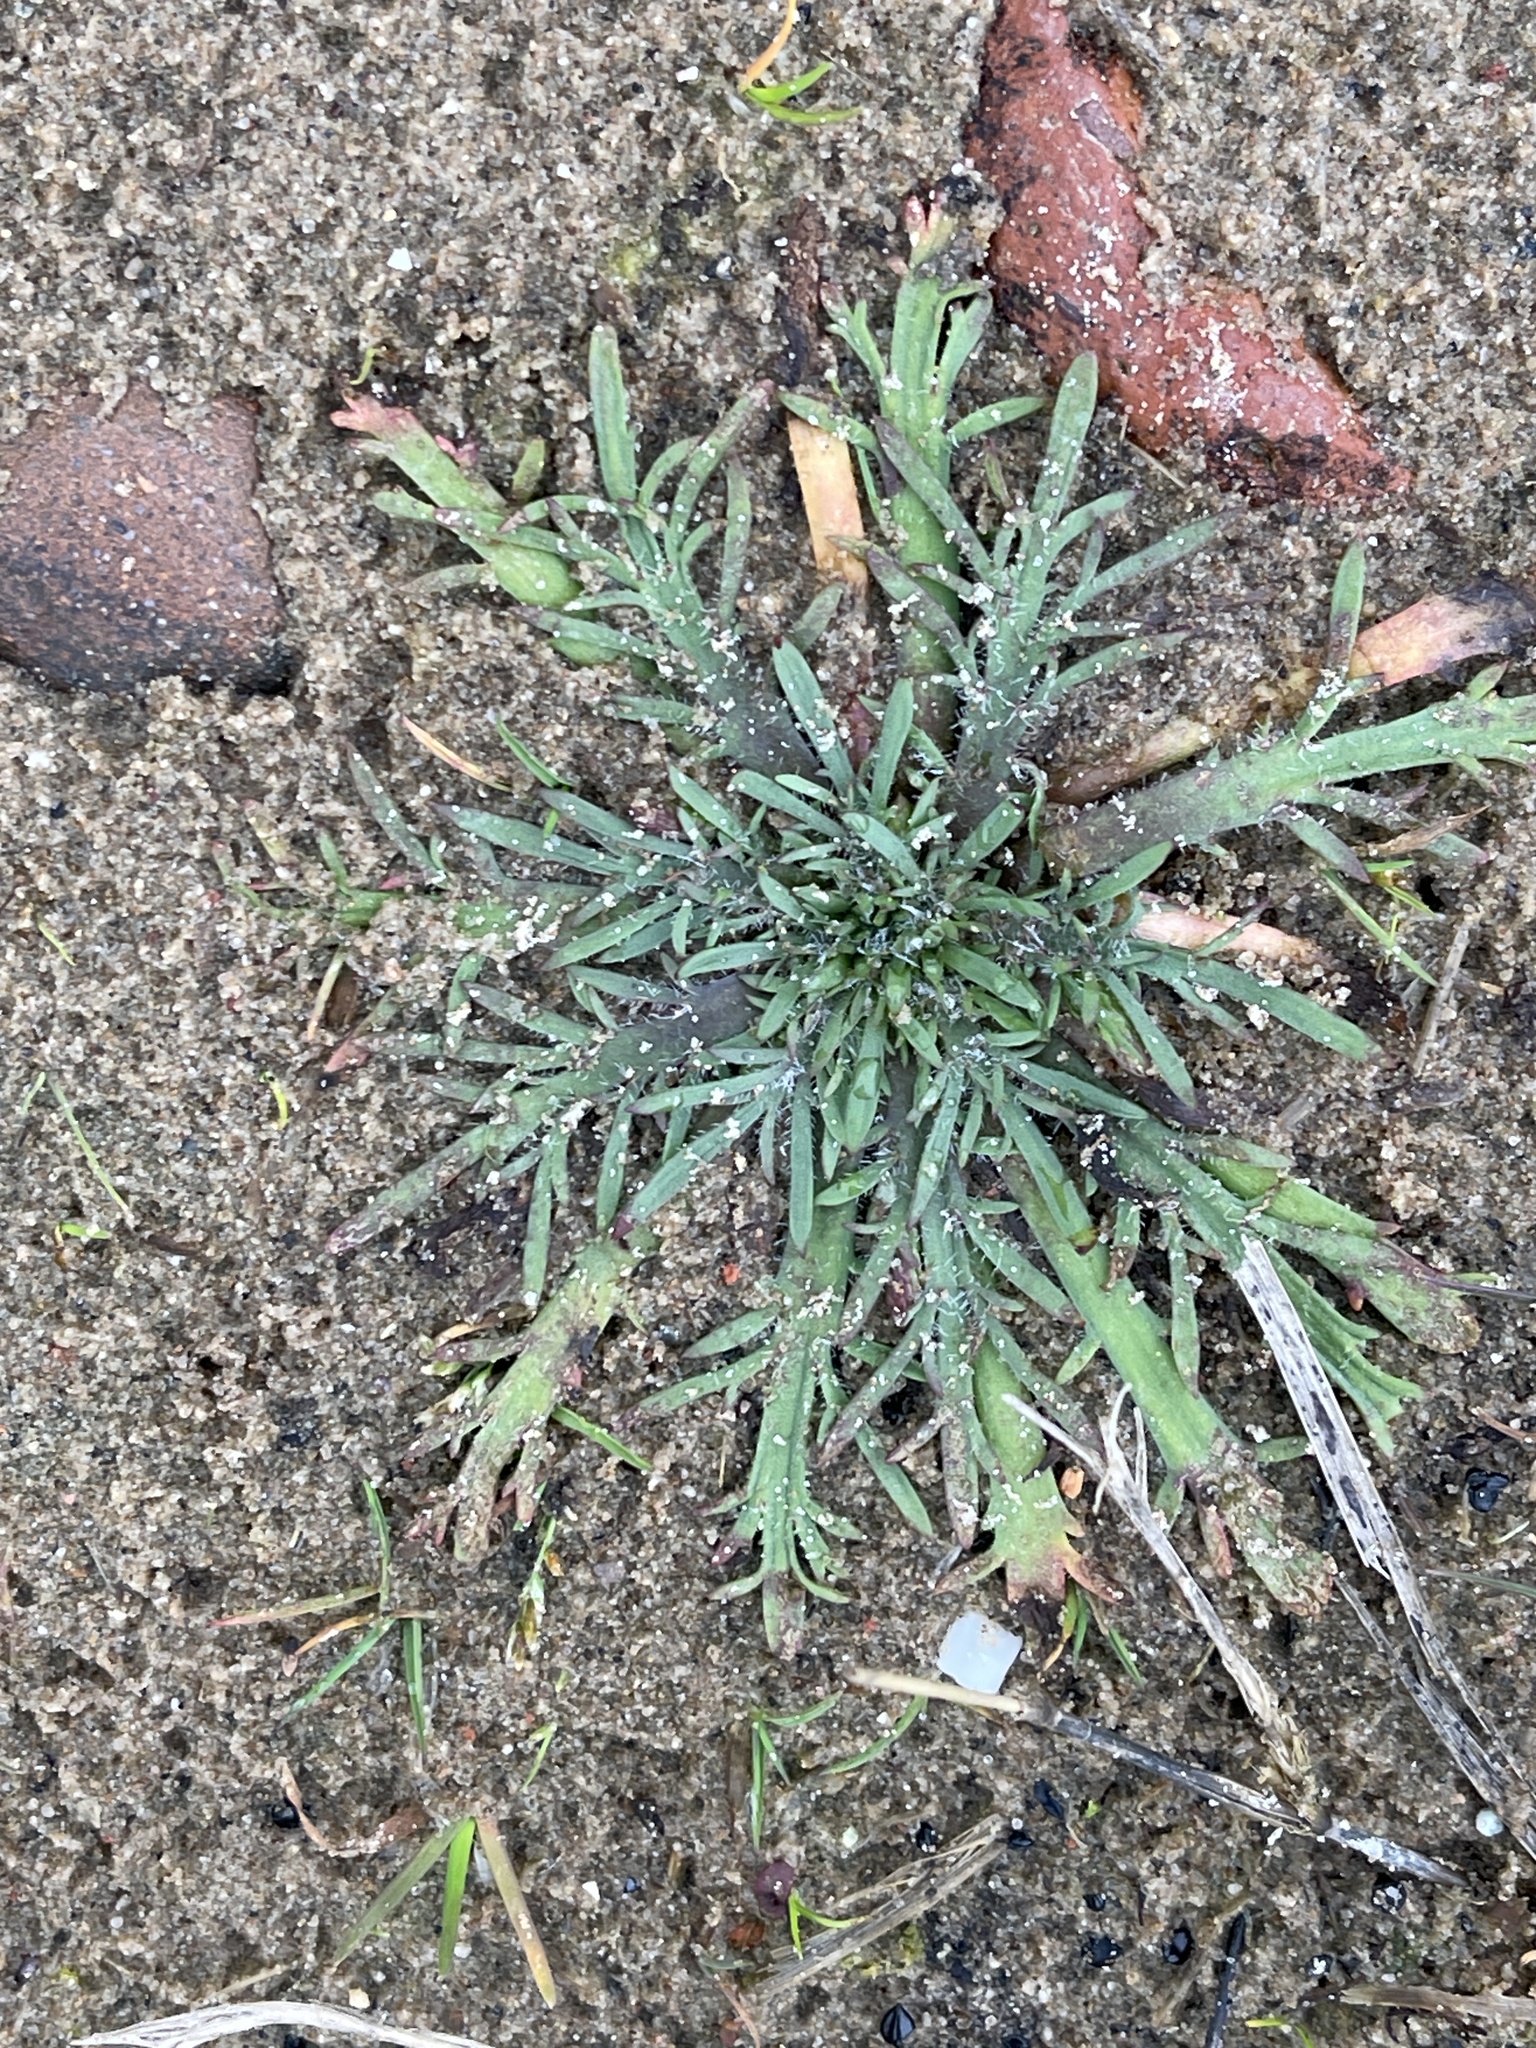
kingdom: Plantae
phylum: Tracheophyta
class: Magnoliopsida
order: Lamiales
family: Plantaginaceae
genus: Plantago
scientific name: Plantago coronopus
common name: Buck's-horn plantain
